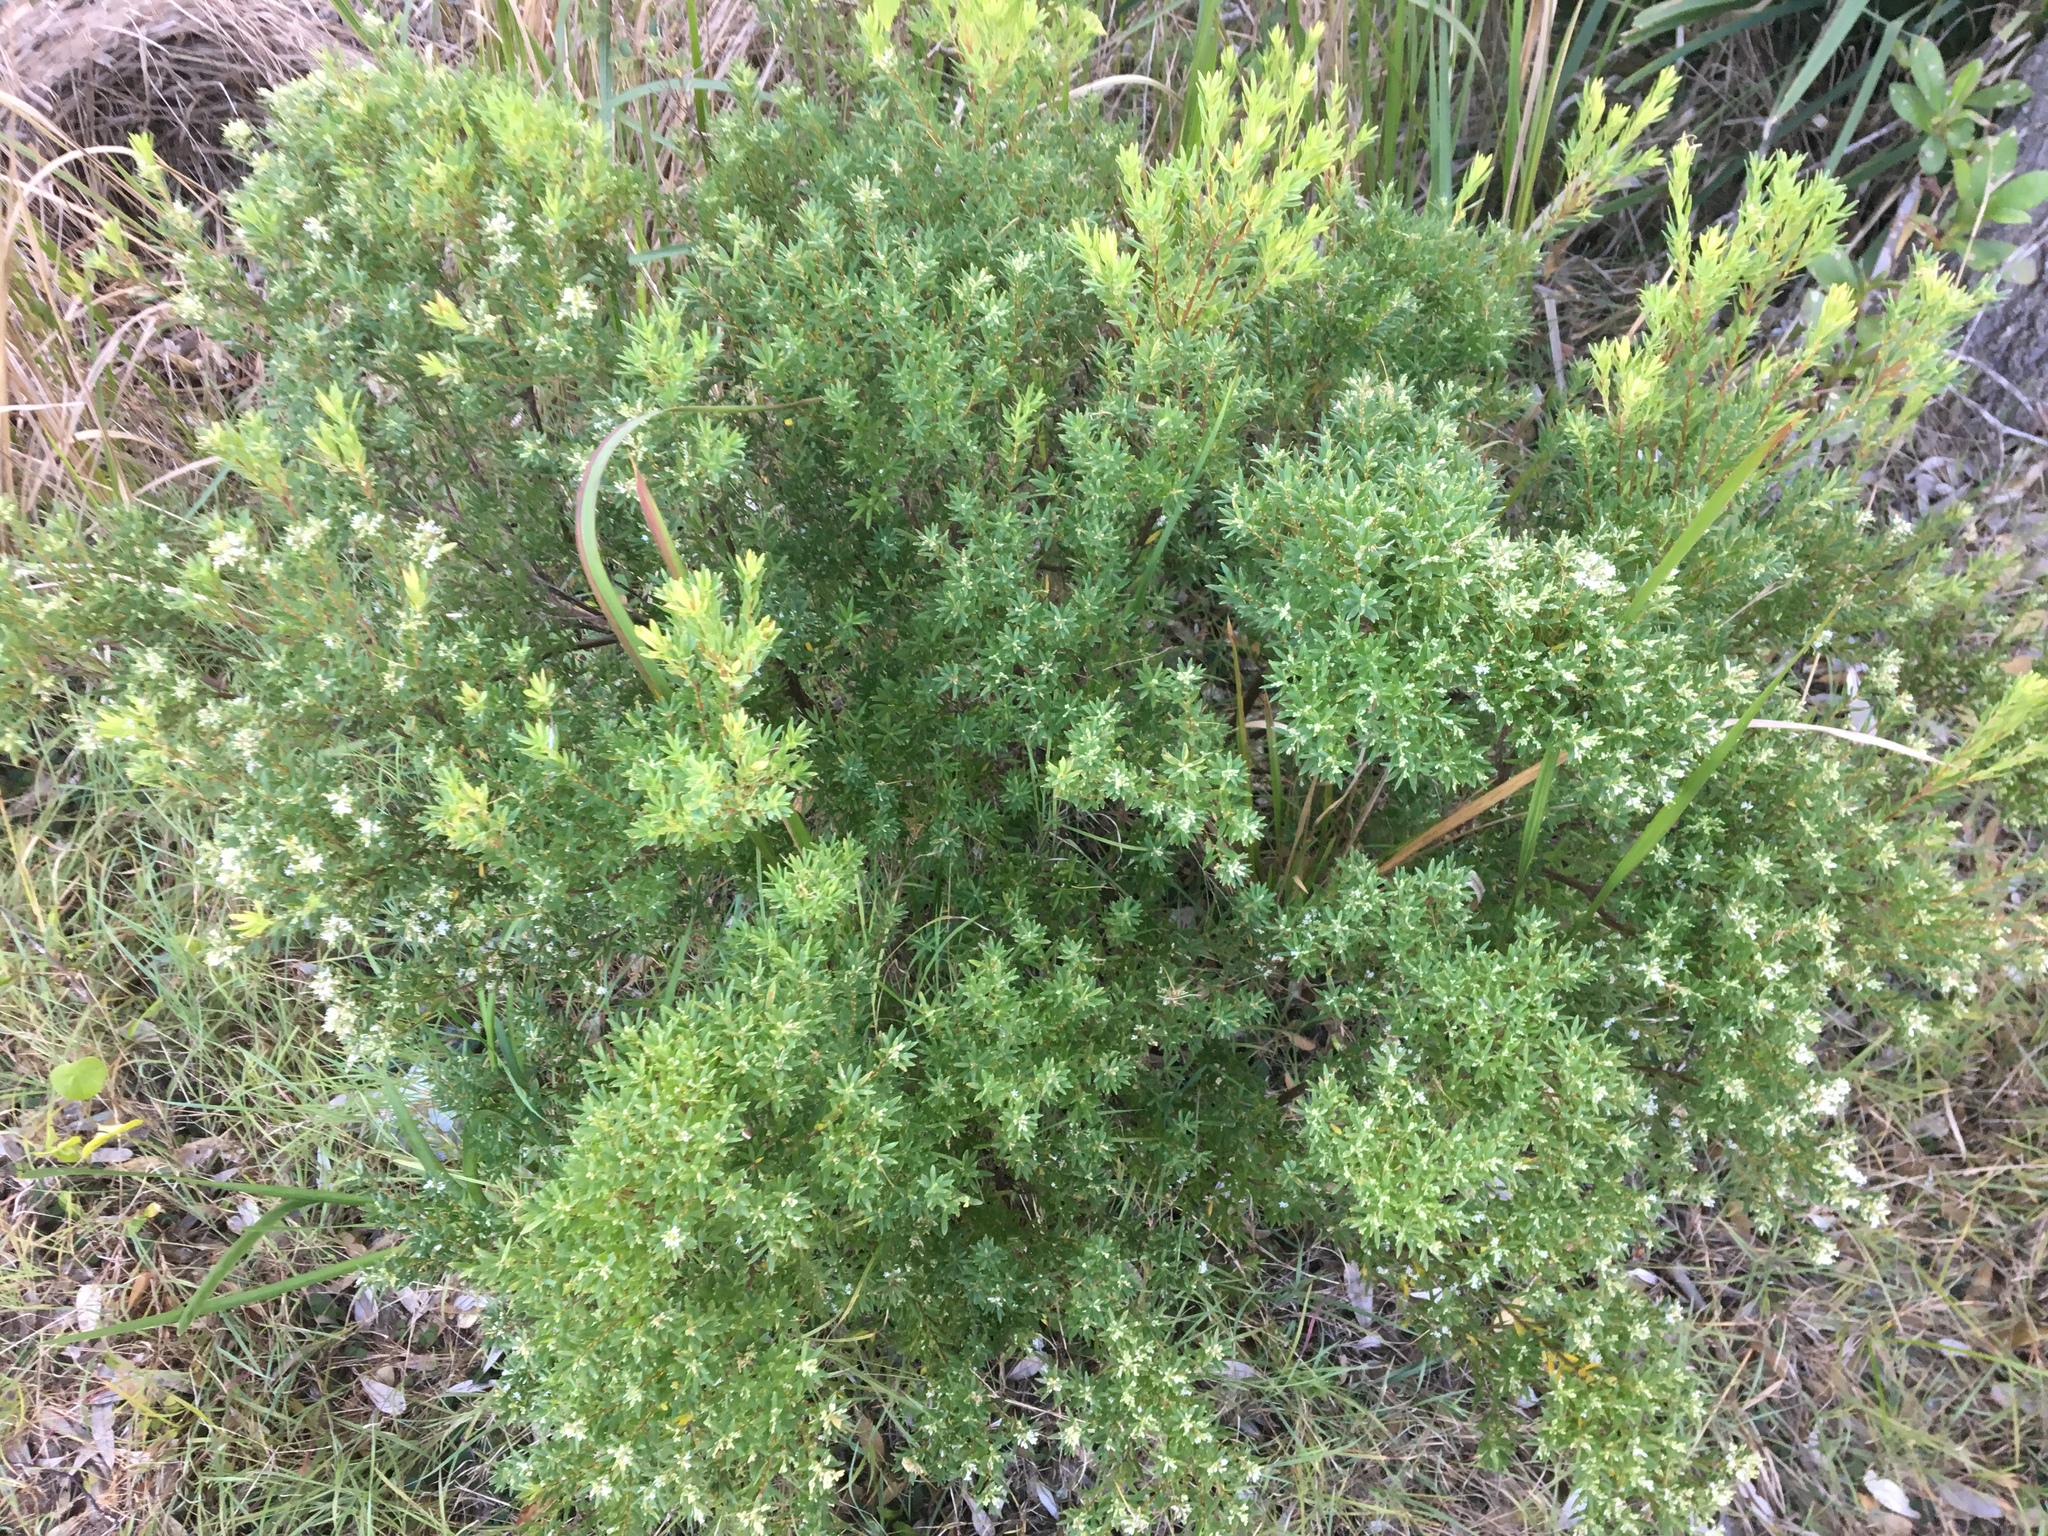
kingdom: Plantae
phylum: Tracheophyta
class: Magnoliopsida
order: Ericales
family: Ericaceae
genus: Leptecophylla
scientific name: Leptecophylla parvifolia
